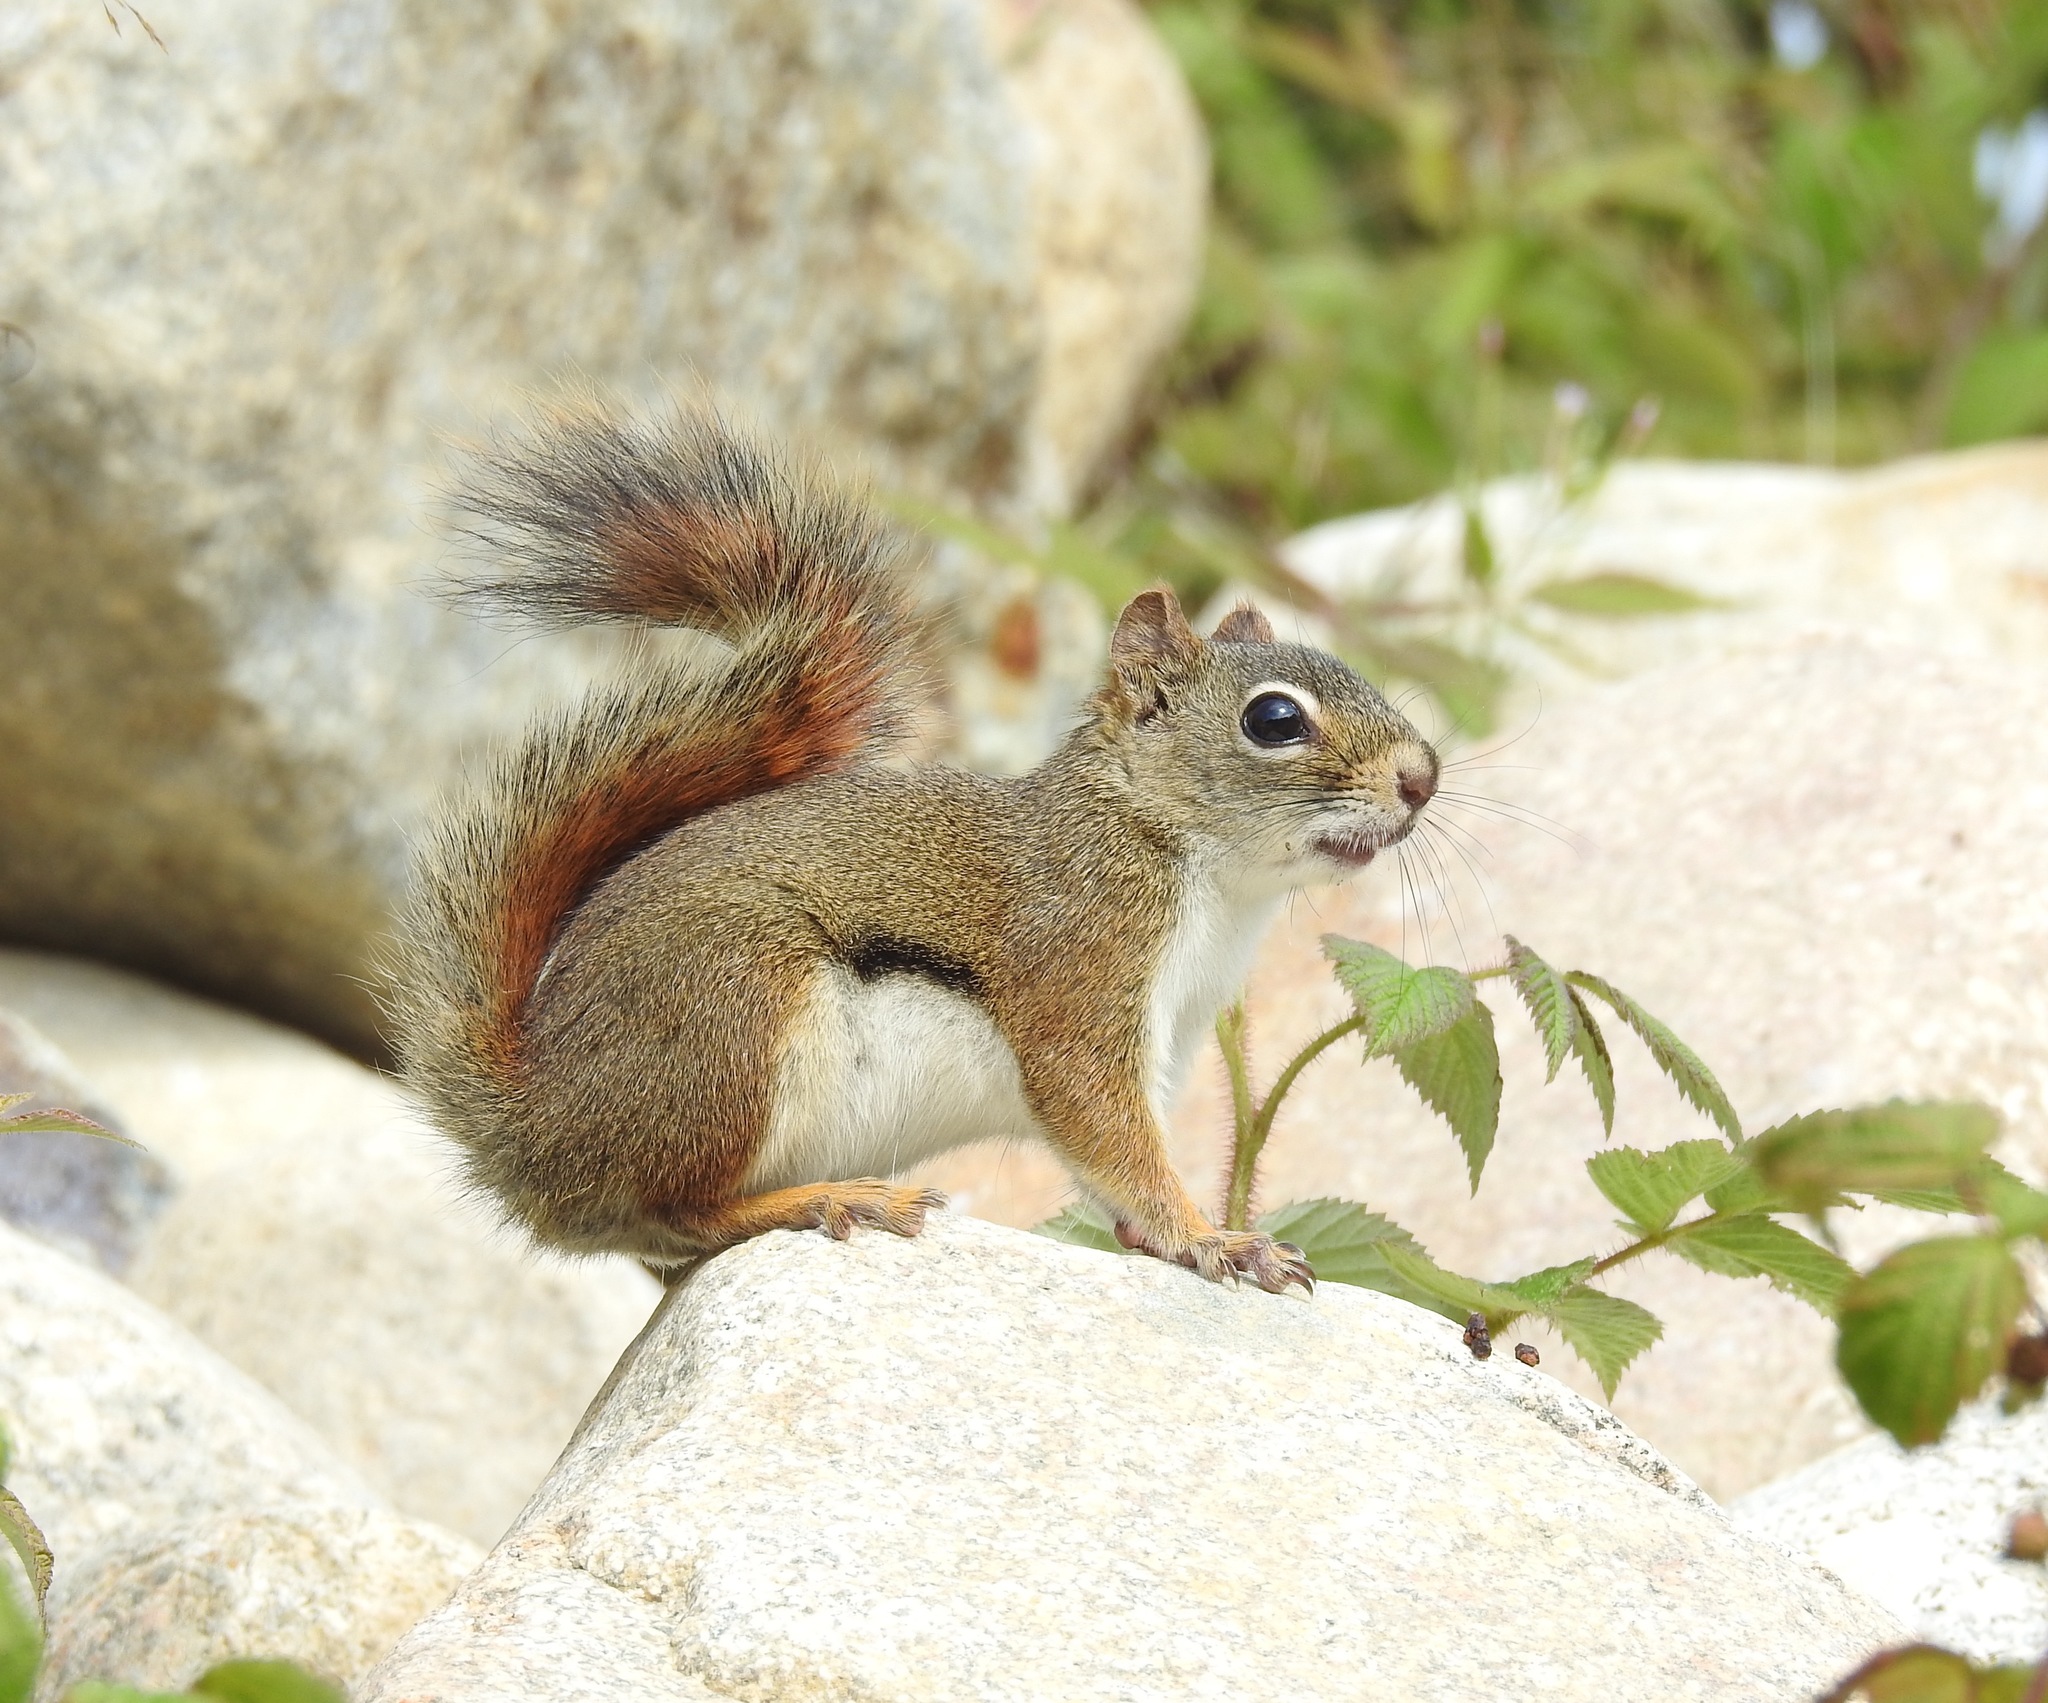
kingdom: Animalia
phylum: Chordata
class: Mammalia
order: Rodentia
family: Sciuridae
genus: Tamiasciurus
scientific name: Tamiasciurus hudsonicus
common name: Red squirrel
